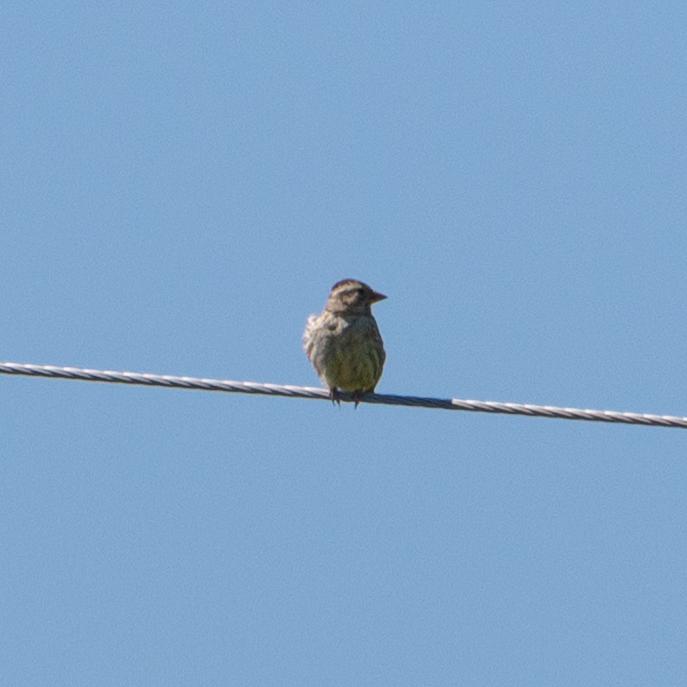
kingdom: Animalia
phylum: Chordata
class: Aves
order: Passeriformes
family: Passeridae
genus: Petronia
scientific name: Petronia petronia
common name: Rock sparrow
